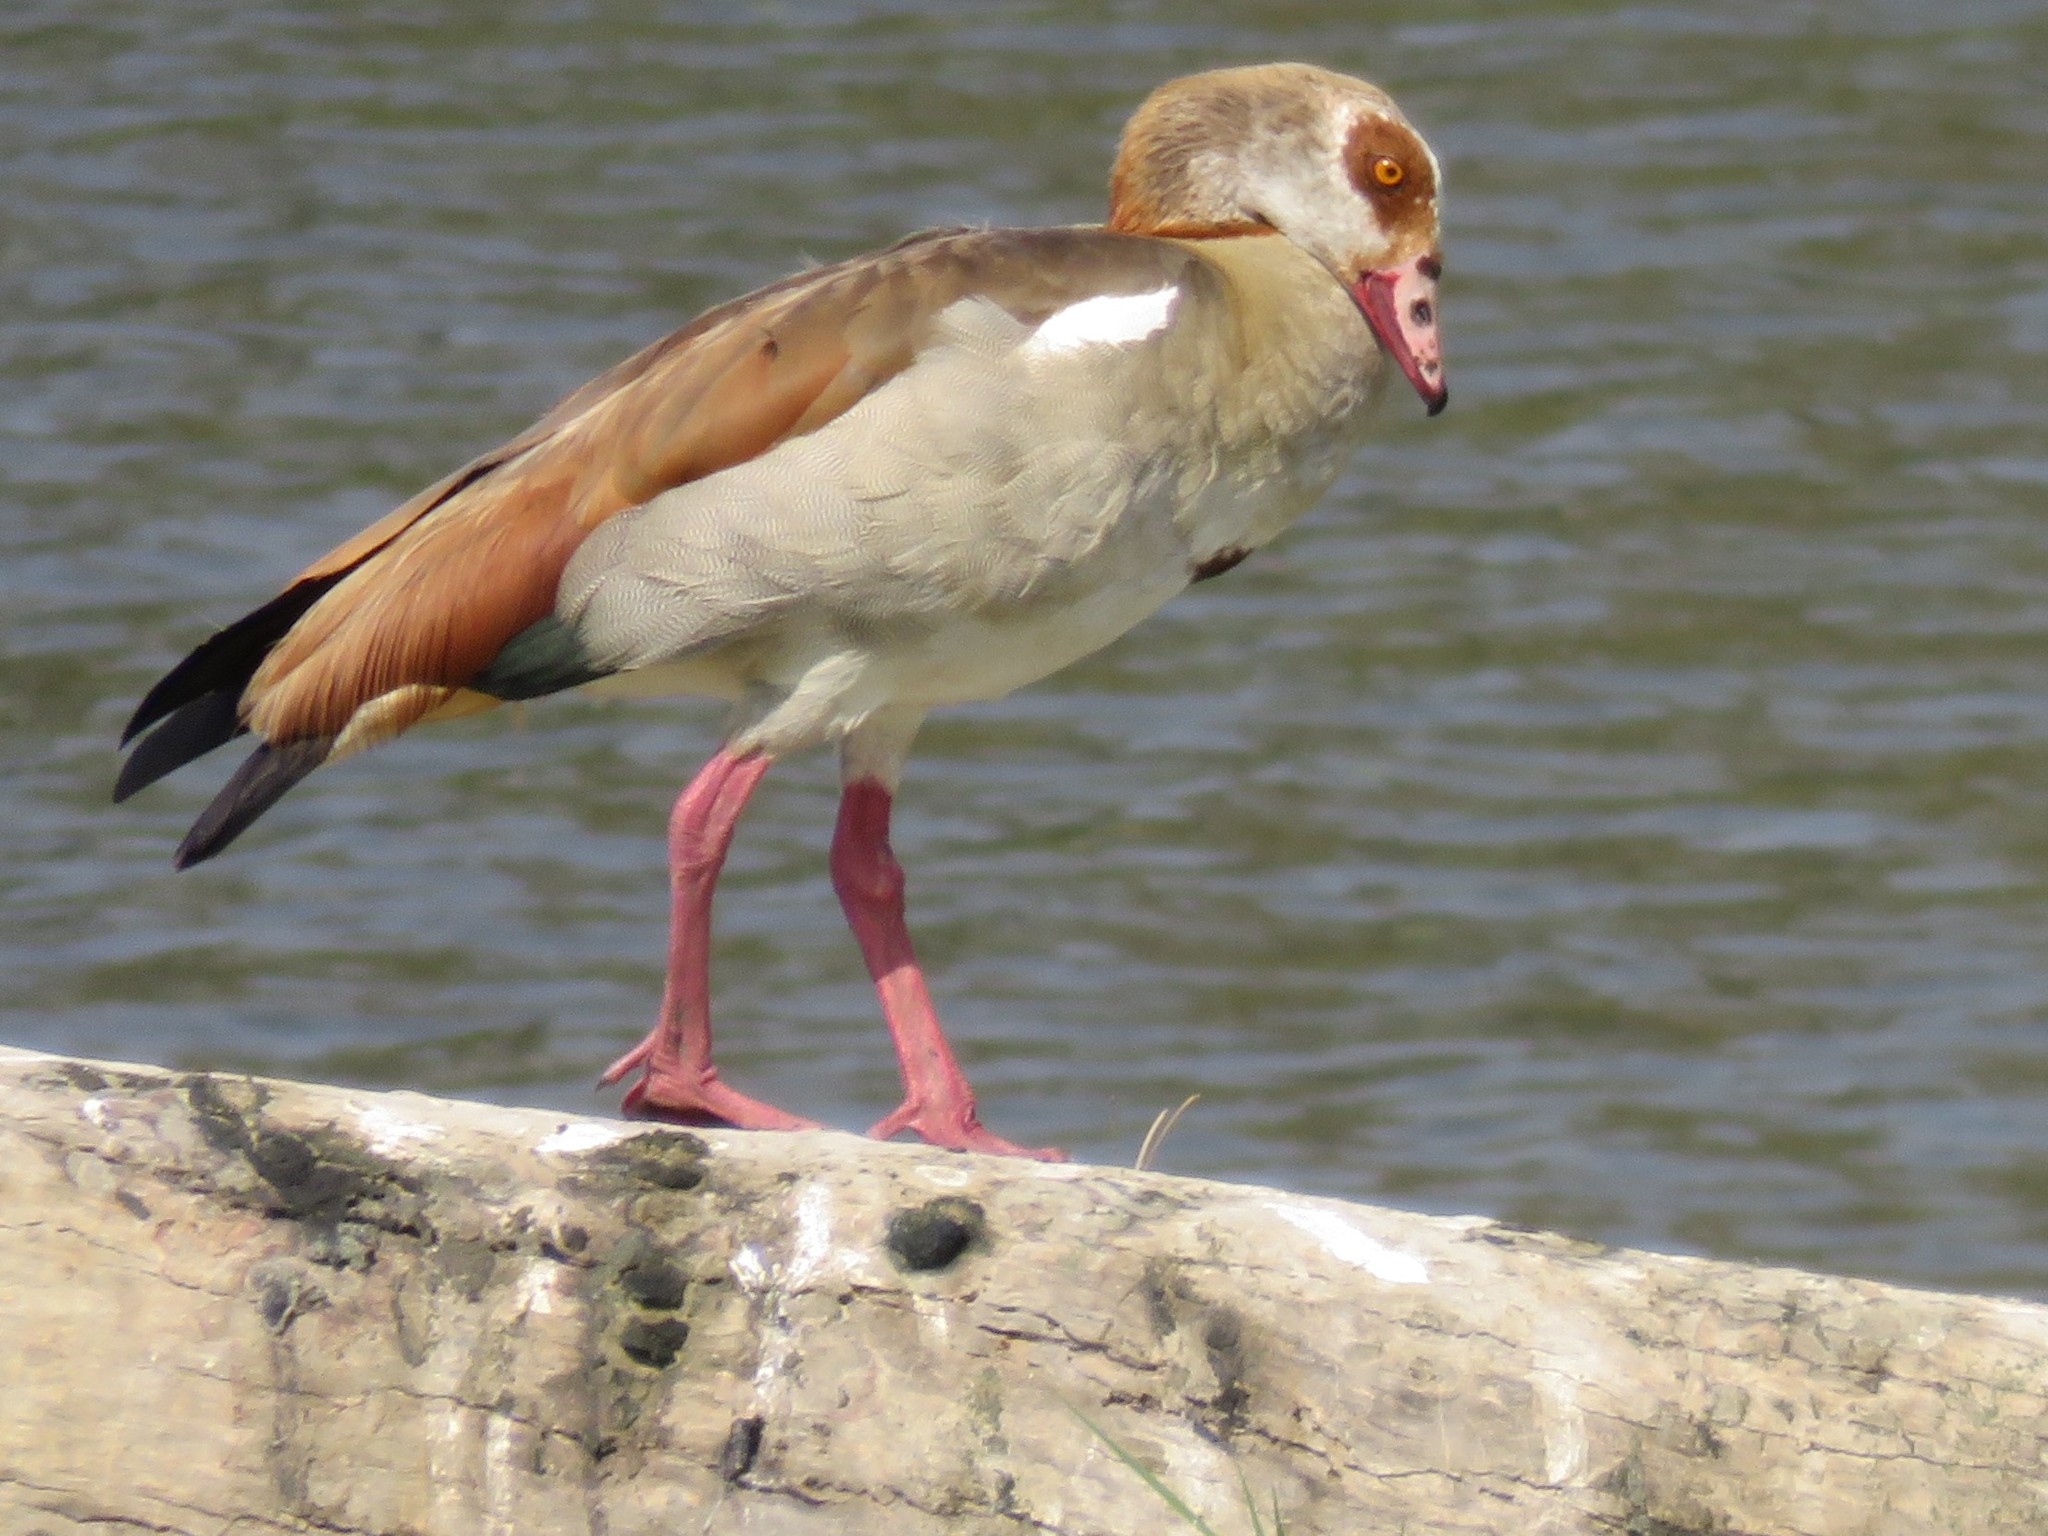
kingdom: Animalia
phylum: Chordata
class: Aves
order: Anseriformes
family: Anatidae
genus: Alopochen
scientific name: Alopochen aegyptiaca
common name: Egyptian goose
